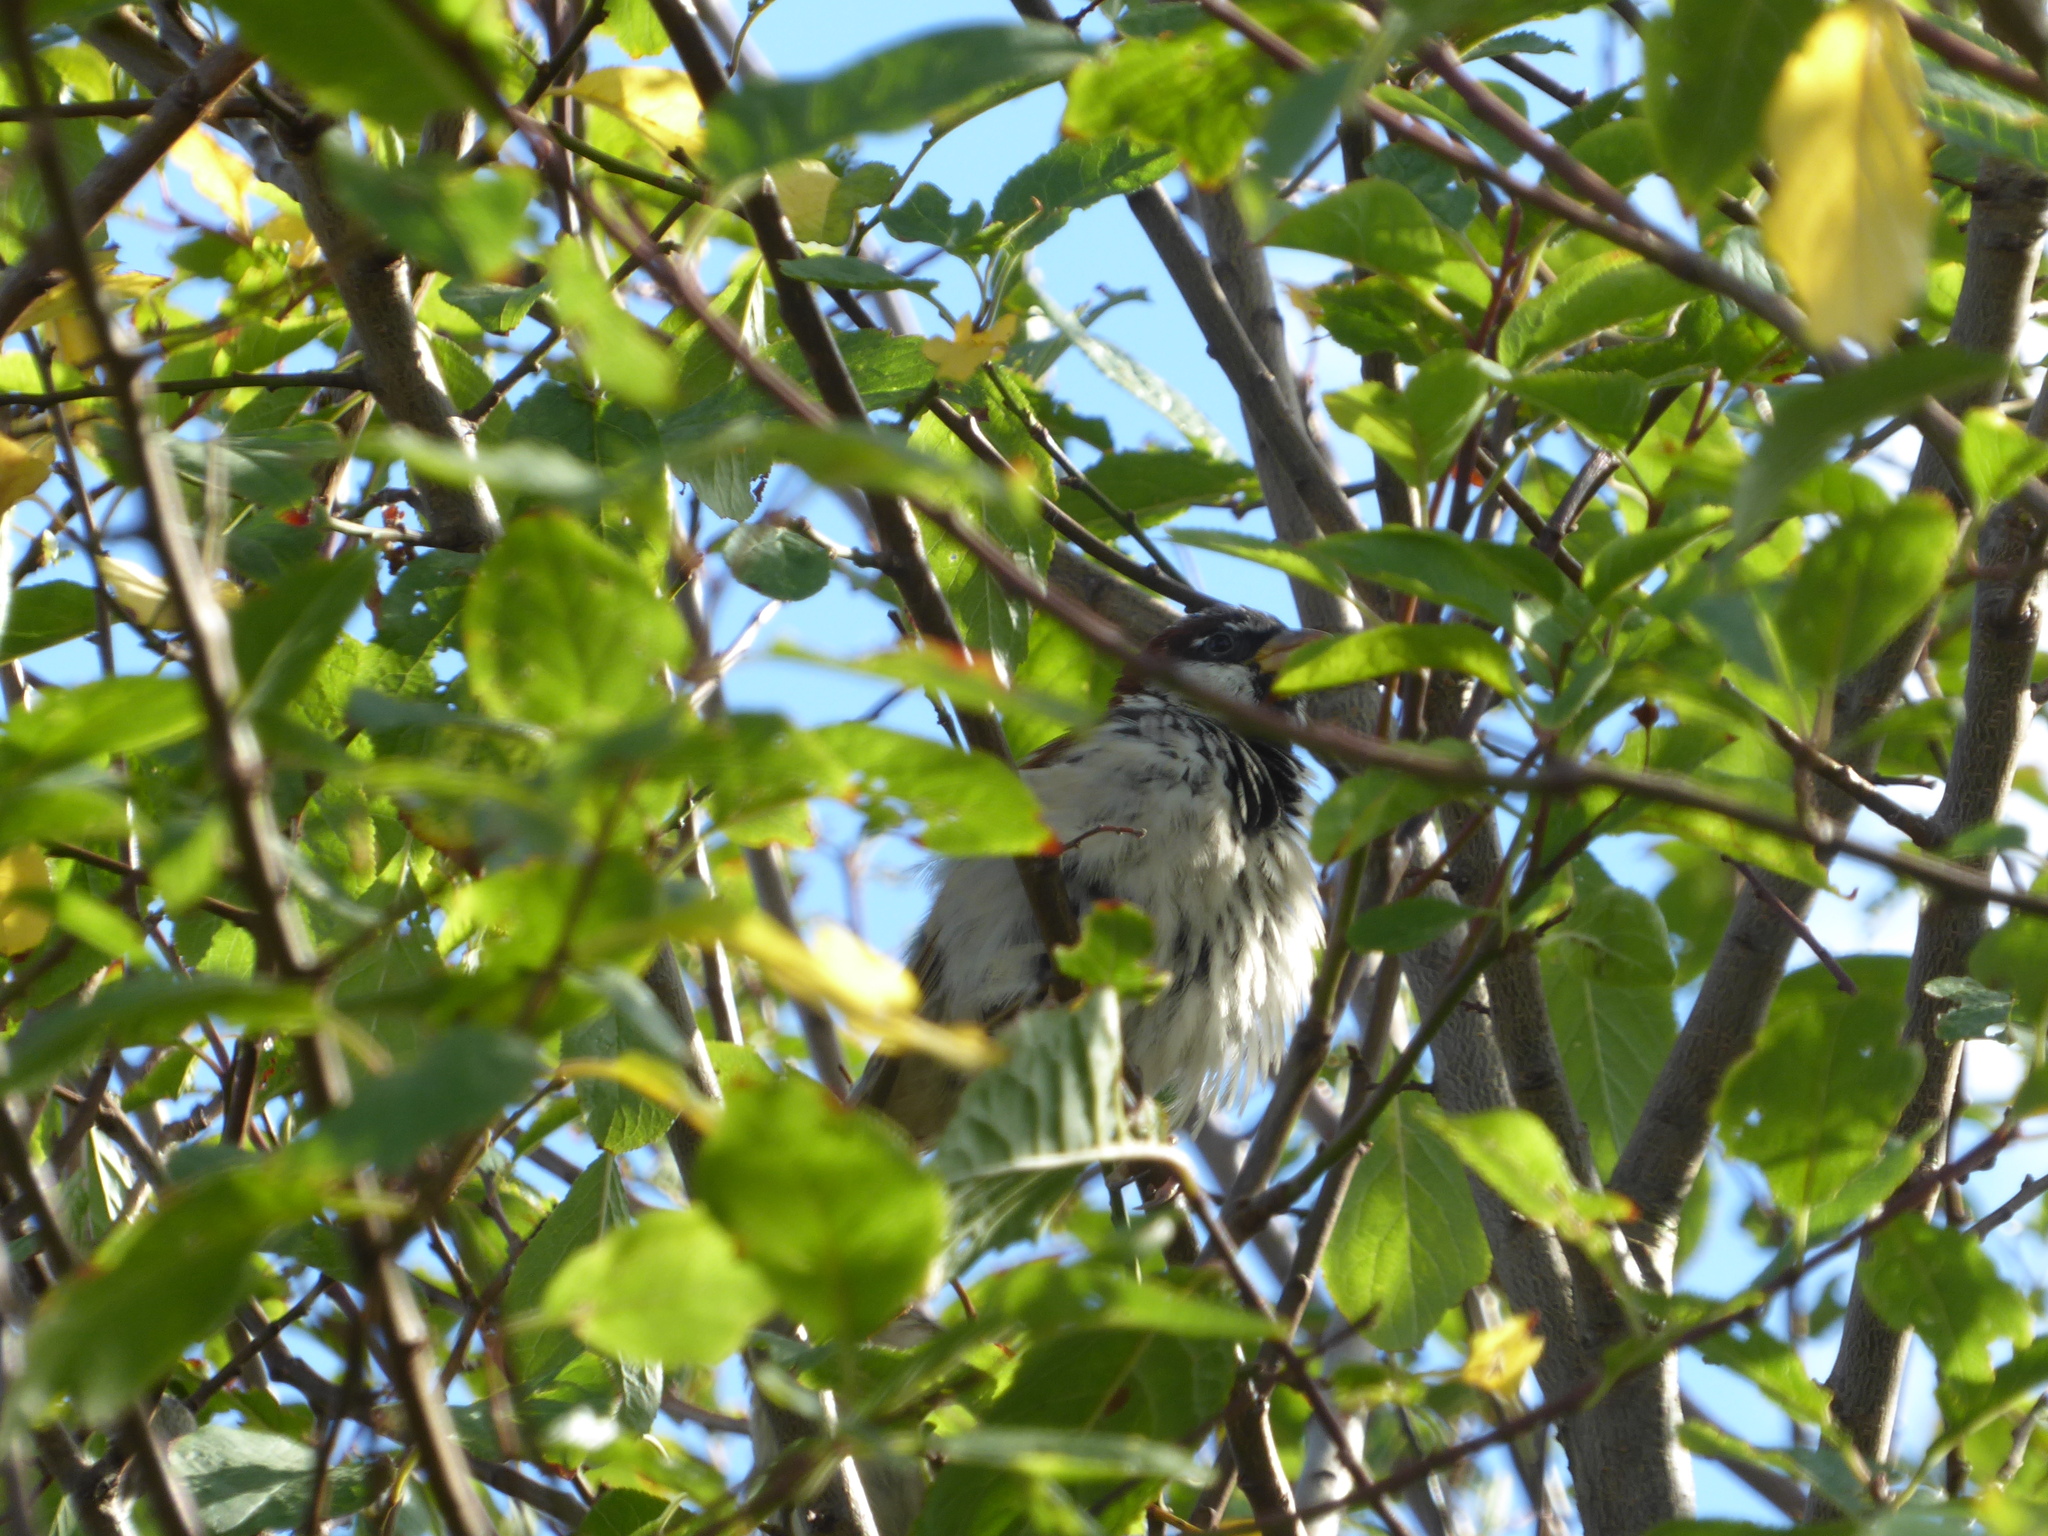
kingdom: Animalia
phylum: Chordata
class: Aves
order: Passeriformes
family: Passeridae
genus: Passer
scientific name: Passer domesticus
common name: House sparrow
